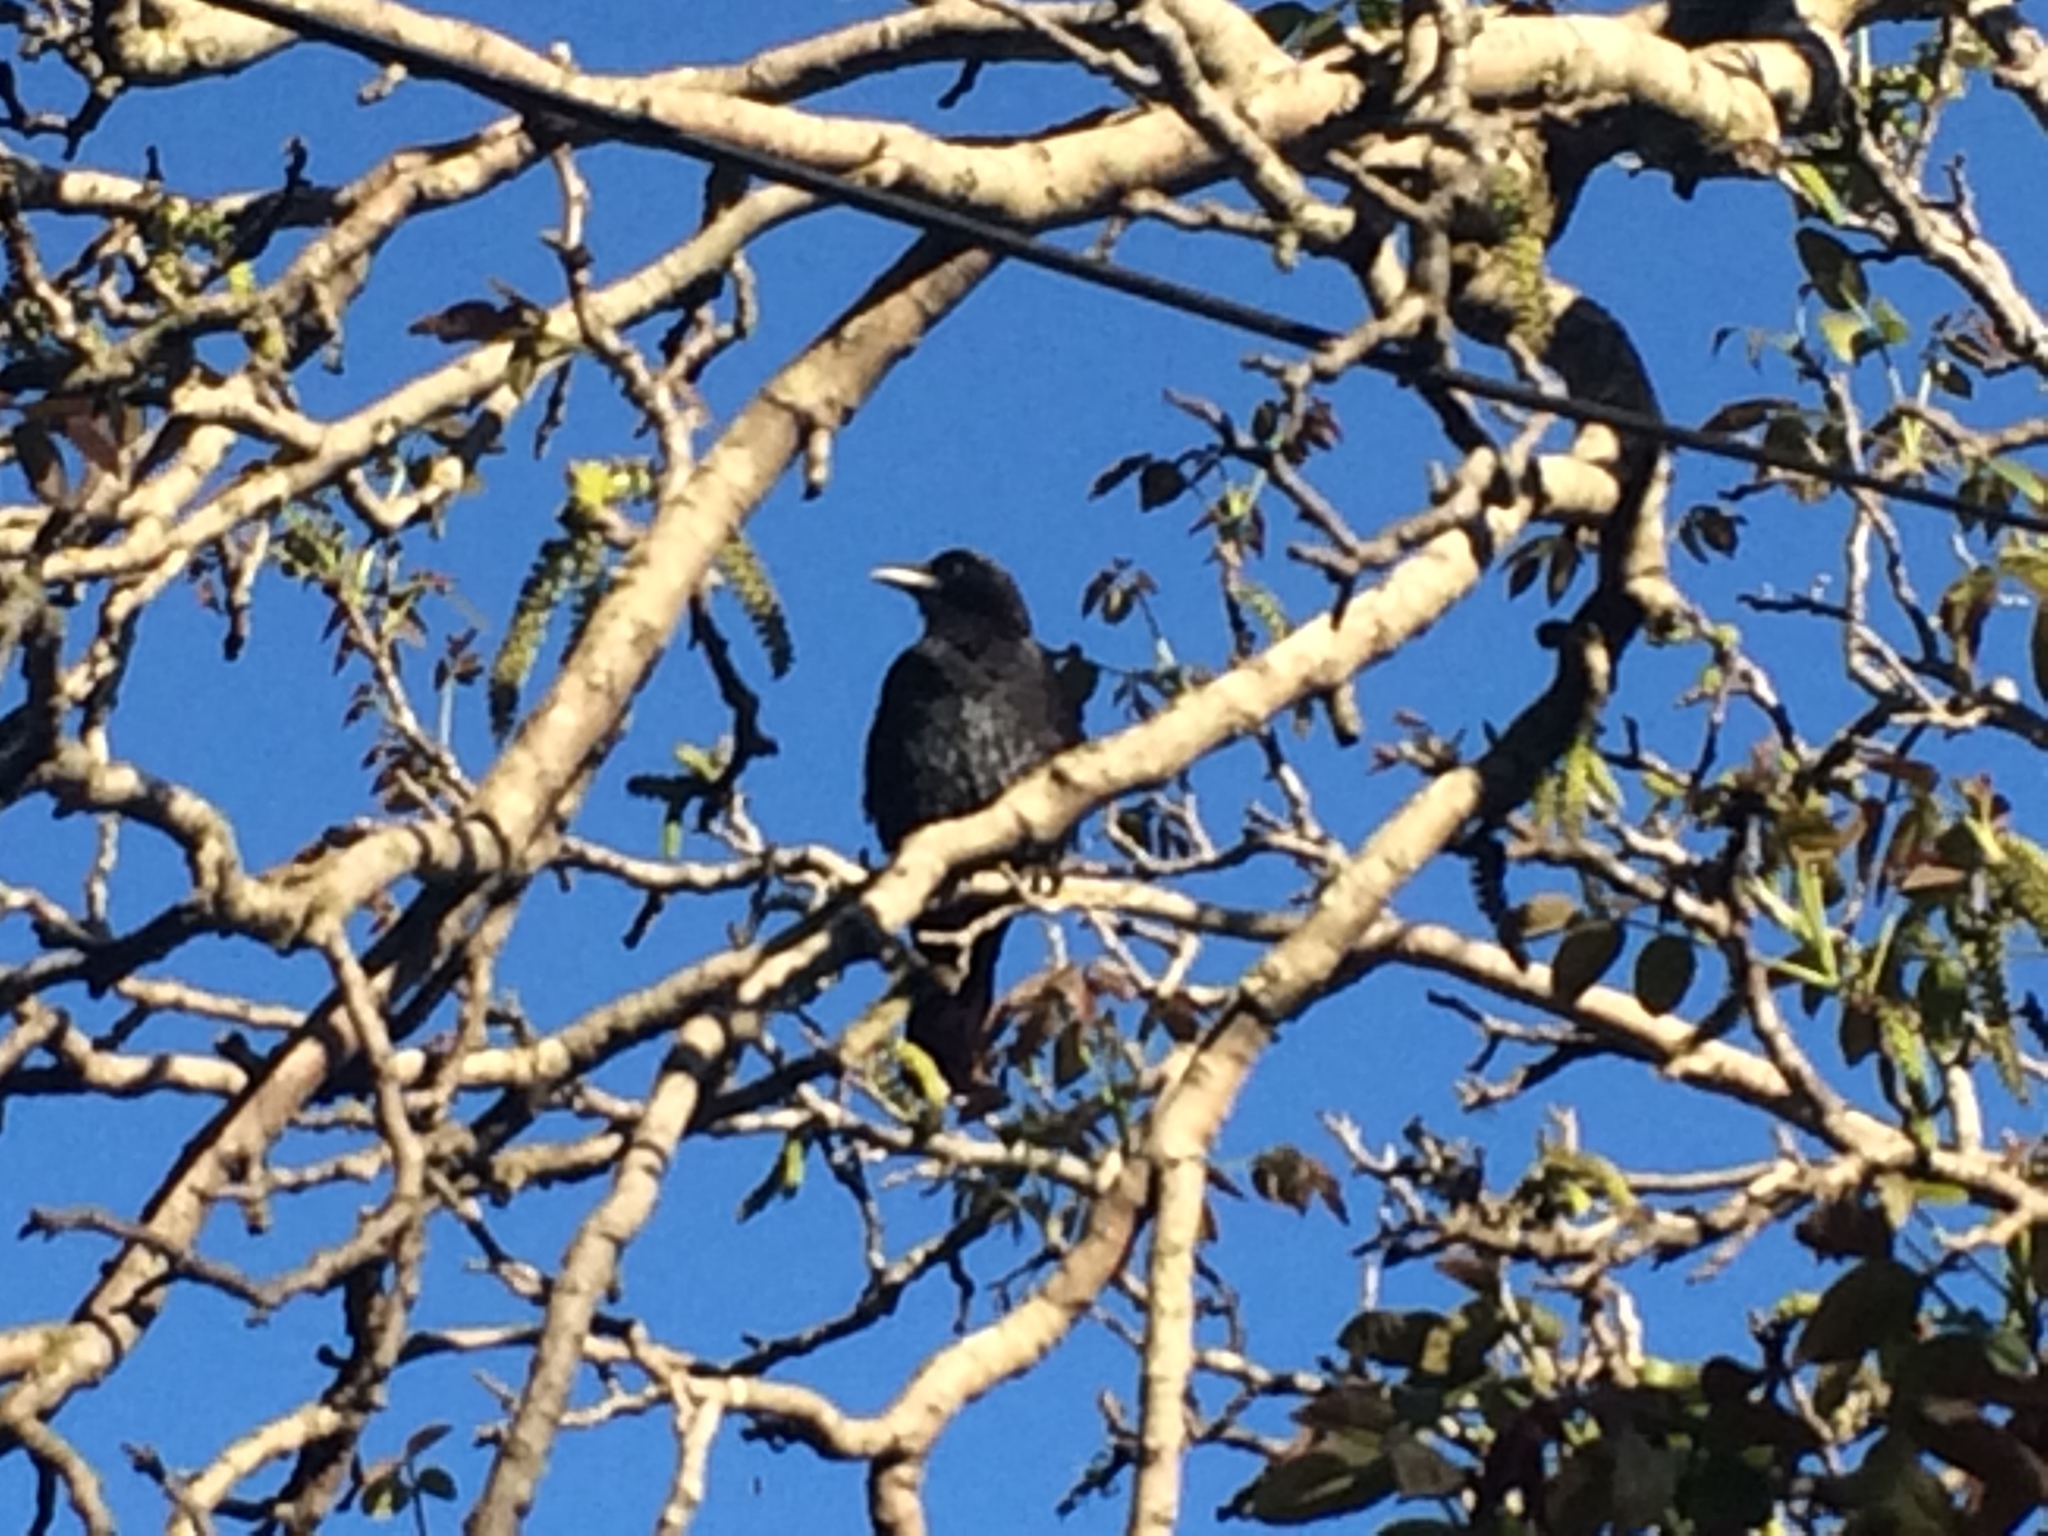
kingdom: Animalia
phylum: Chordata
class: Aves
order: Passeriformes
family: Corvidae
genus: Corvus
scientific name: Corvus brachyrhynchos
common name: American crow
